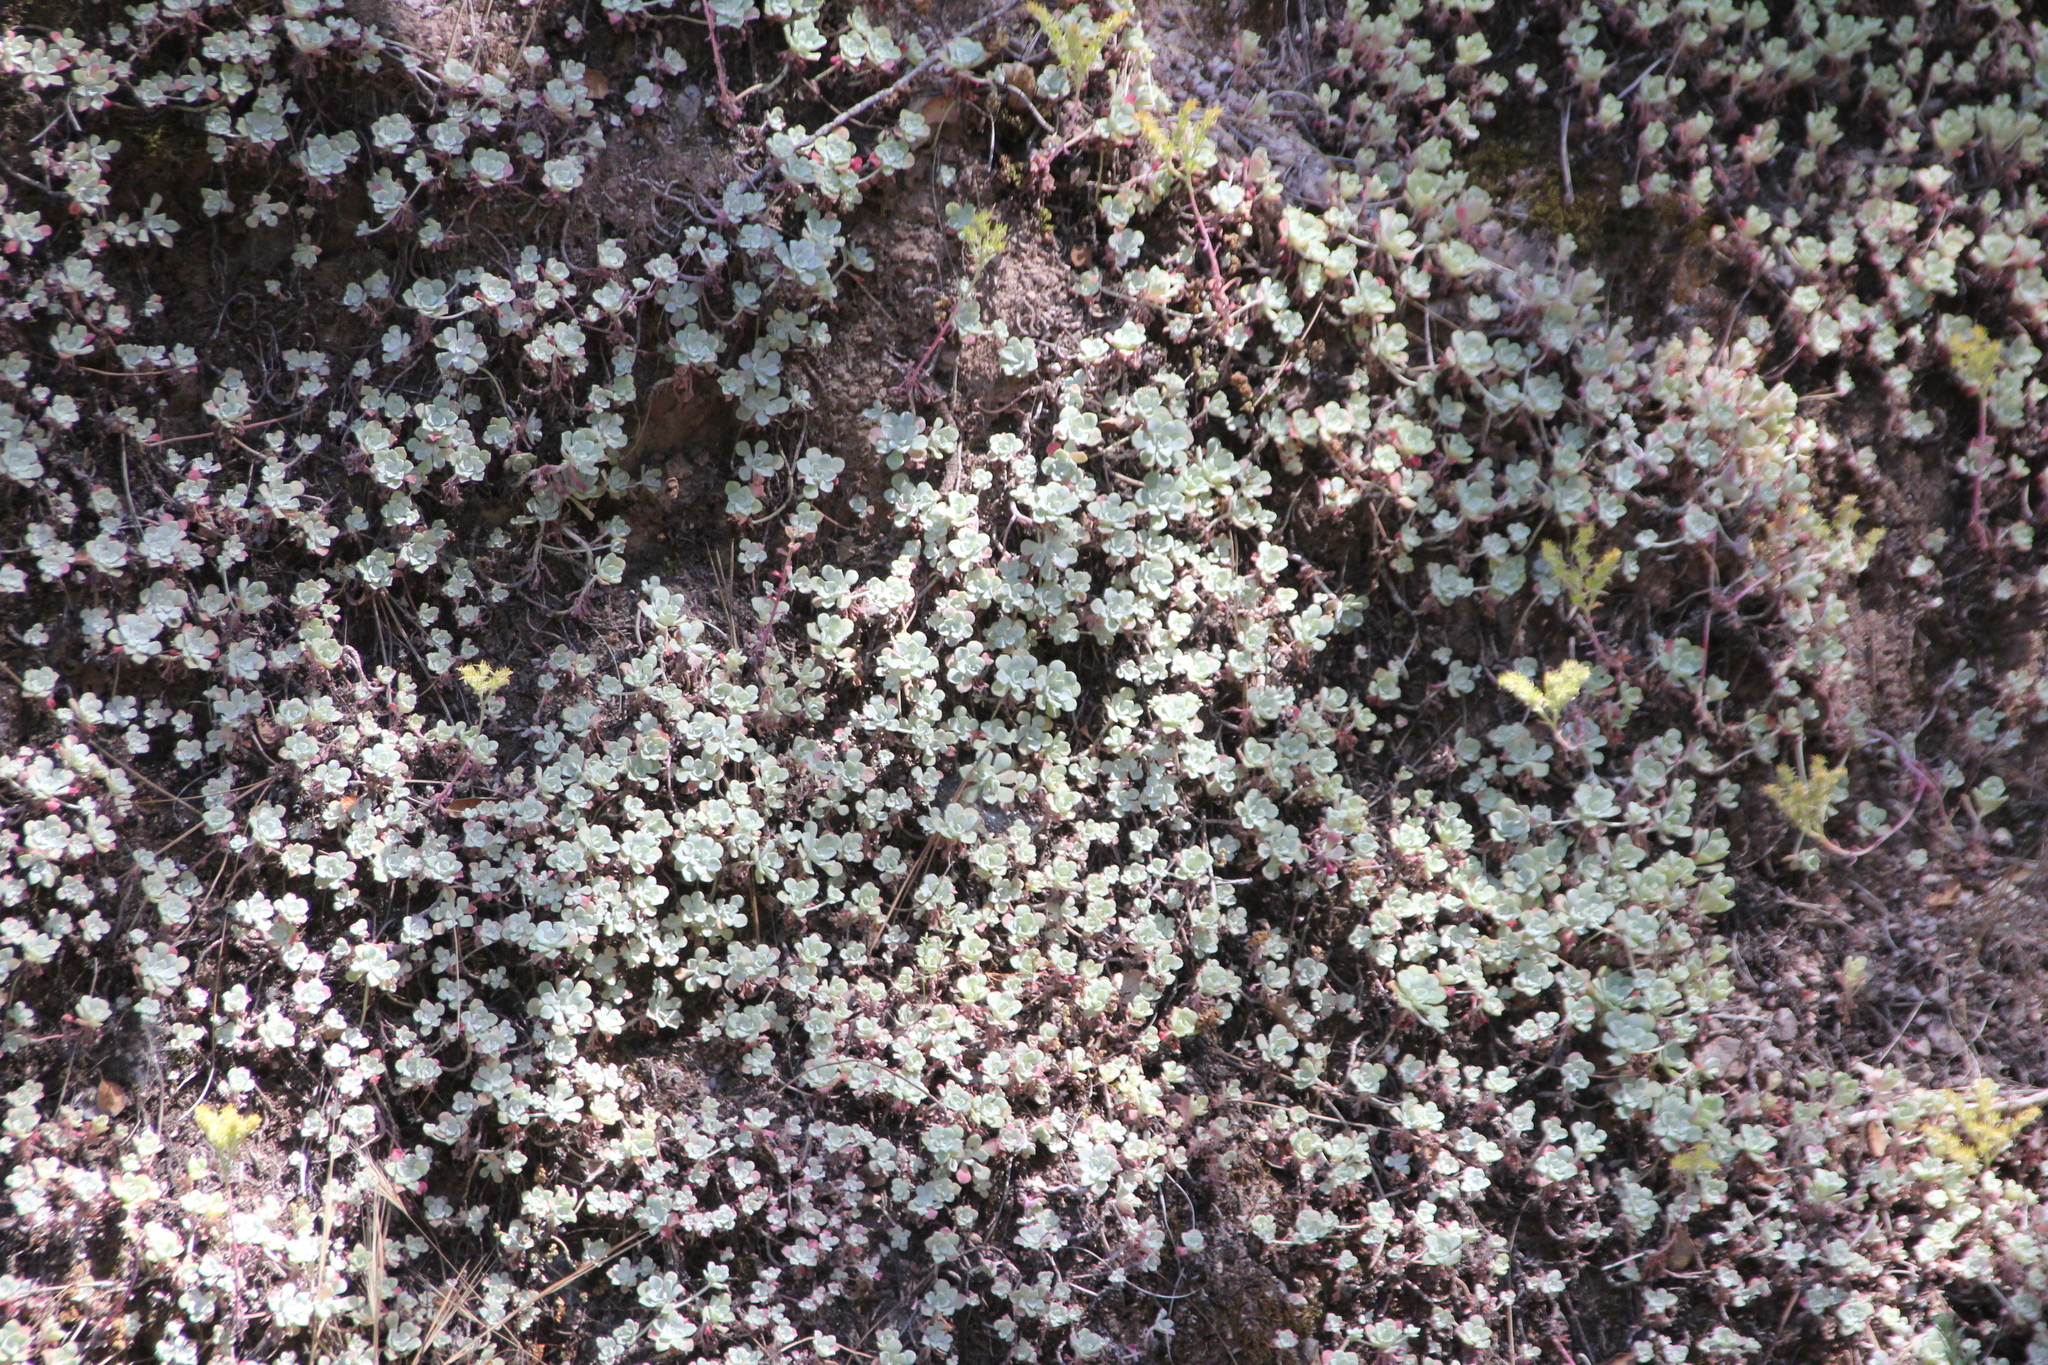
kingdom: Plantae
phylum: Tracheophyta
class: Magnoliopsida
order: Saxifragales
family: Crassulaceae
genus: Sedum
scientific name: Sedum spathulifolium
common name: Colorado stonecrop
